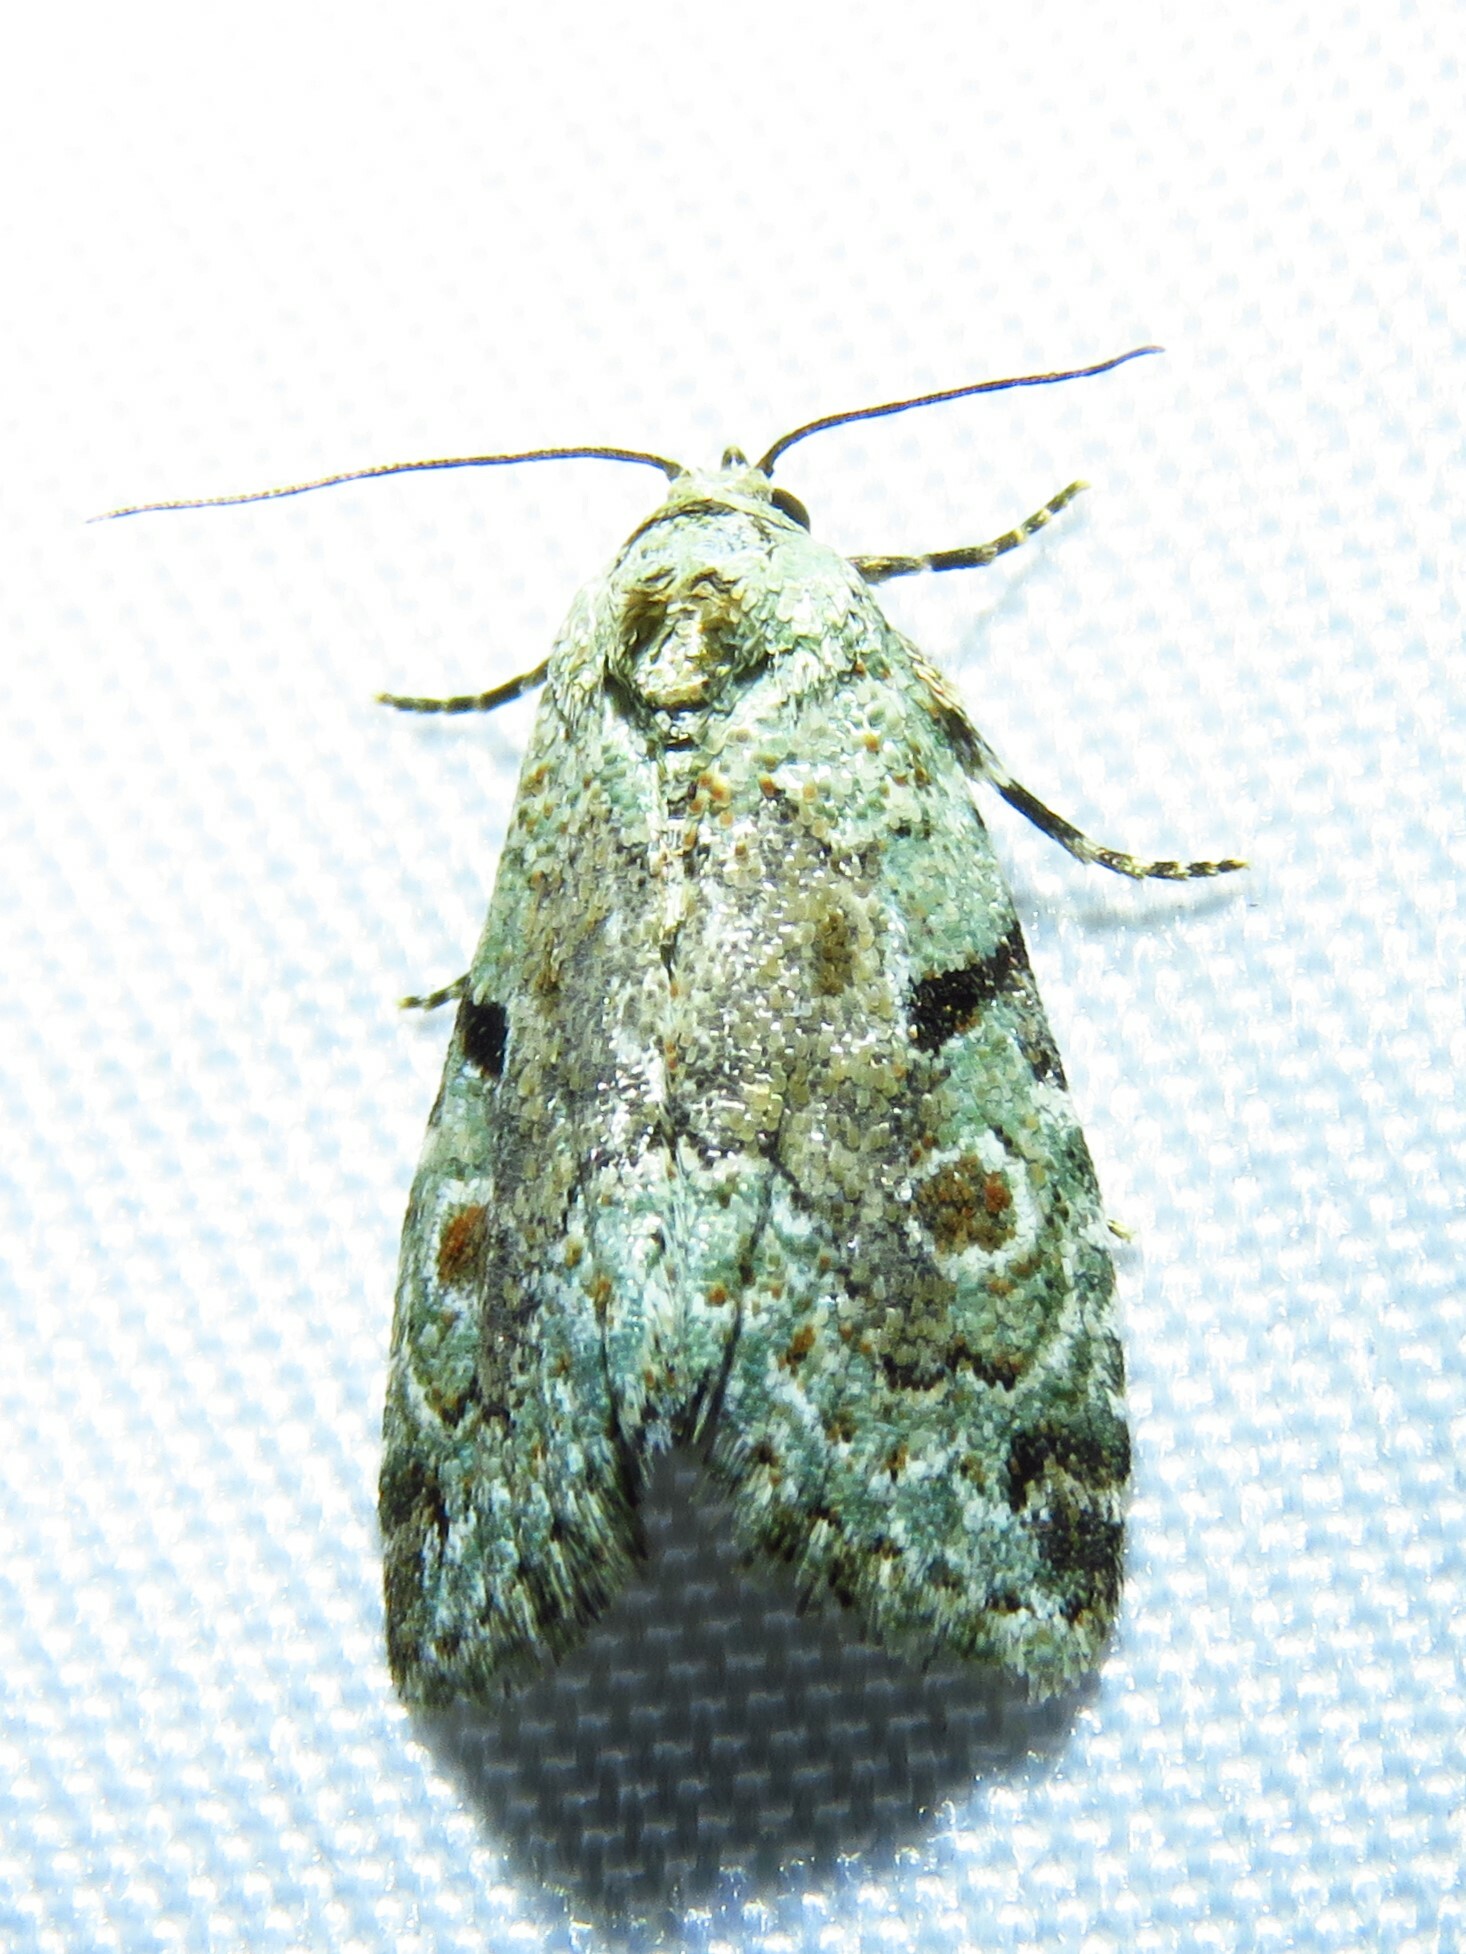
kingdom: Animalia
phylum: Arthropoda
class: Insecta
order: Lepidoptera
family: Noctuidae
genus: Maliattha
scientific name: Maliattha concinnimacula
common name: Red-spotted glyph
